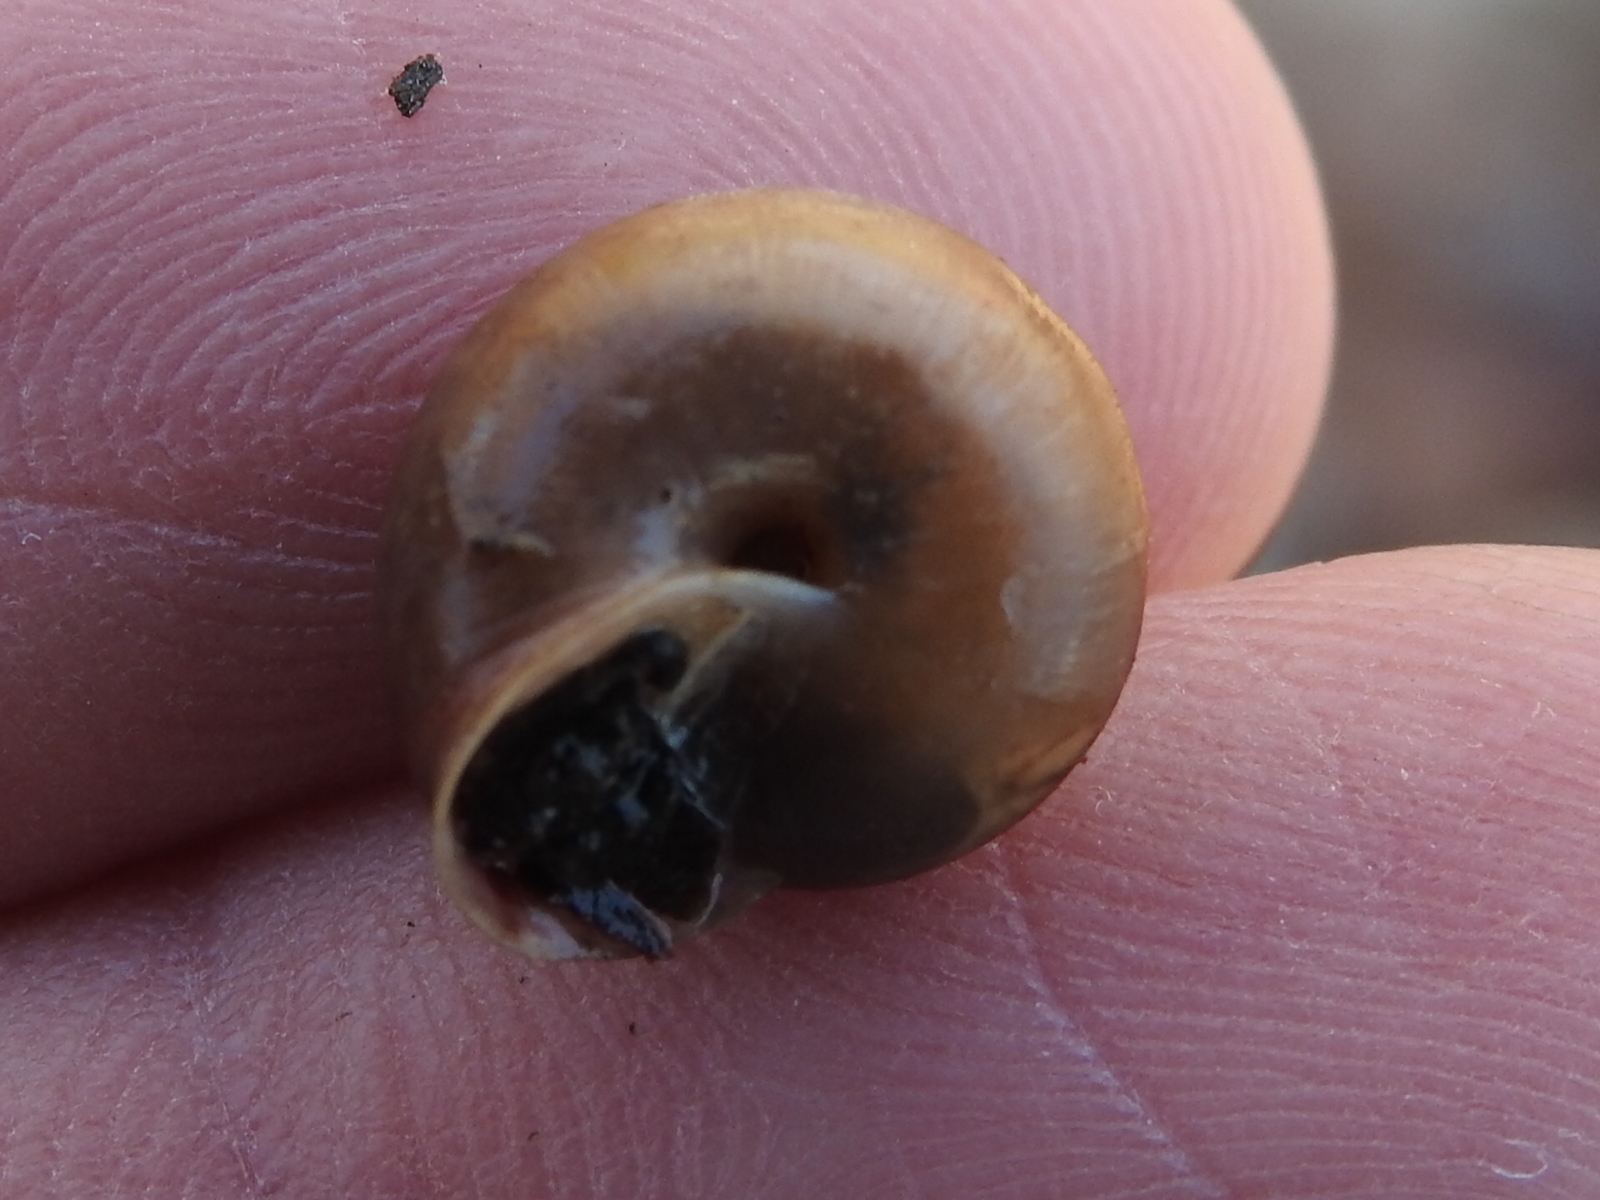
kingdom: Animalia
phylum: Mollusca
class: Gastropoda
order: Stylommatophora
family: Camaenidae
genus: Bradybaena
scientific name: Bradybaena similaris
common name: Asian trampsnail
